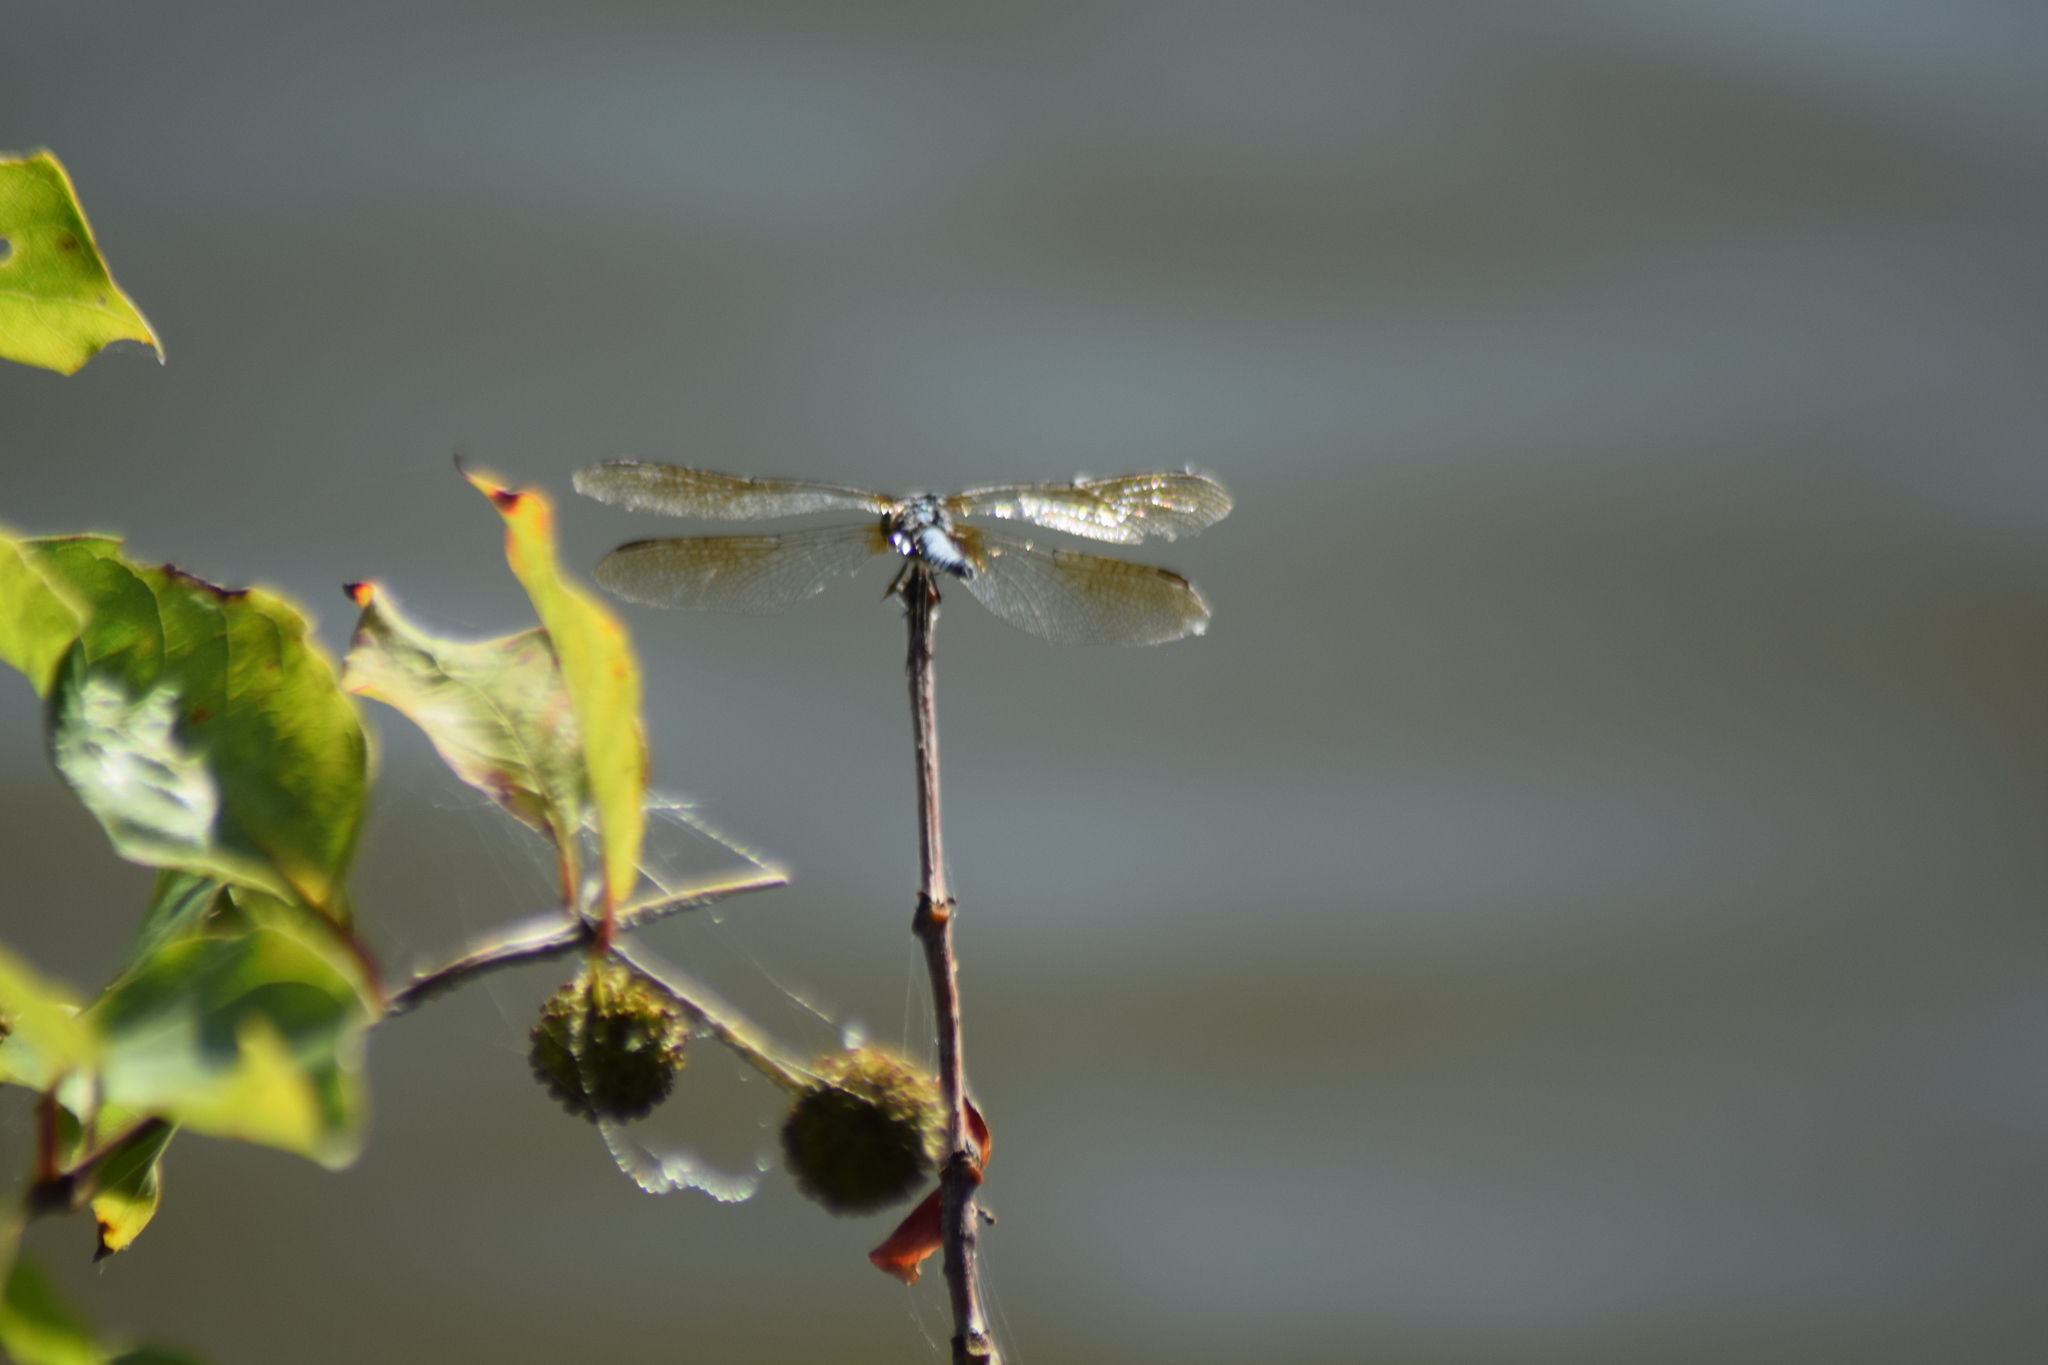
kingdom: Animalia
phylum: Arthropoda
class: Insecta
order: Odonata
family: Libellulidae
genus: Pachydiplax
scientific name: Pachydiplax longipennis
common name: Blue dasher
